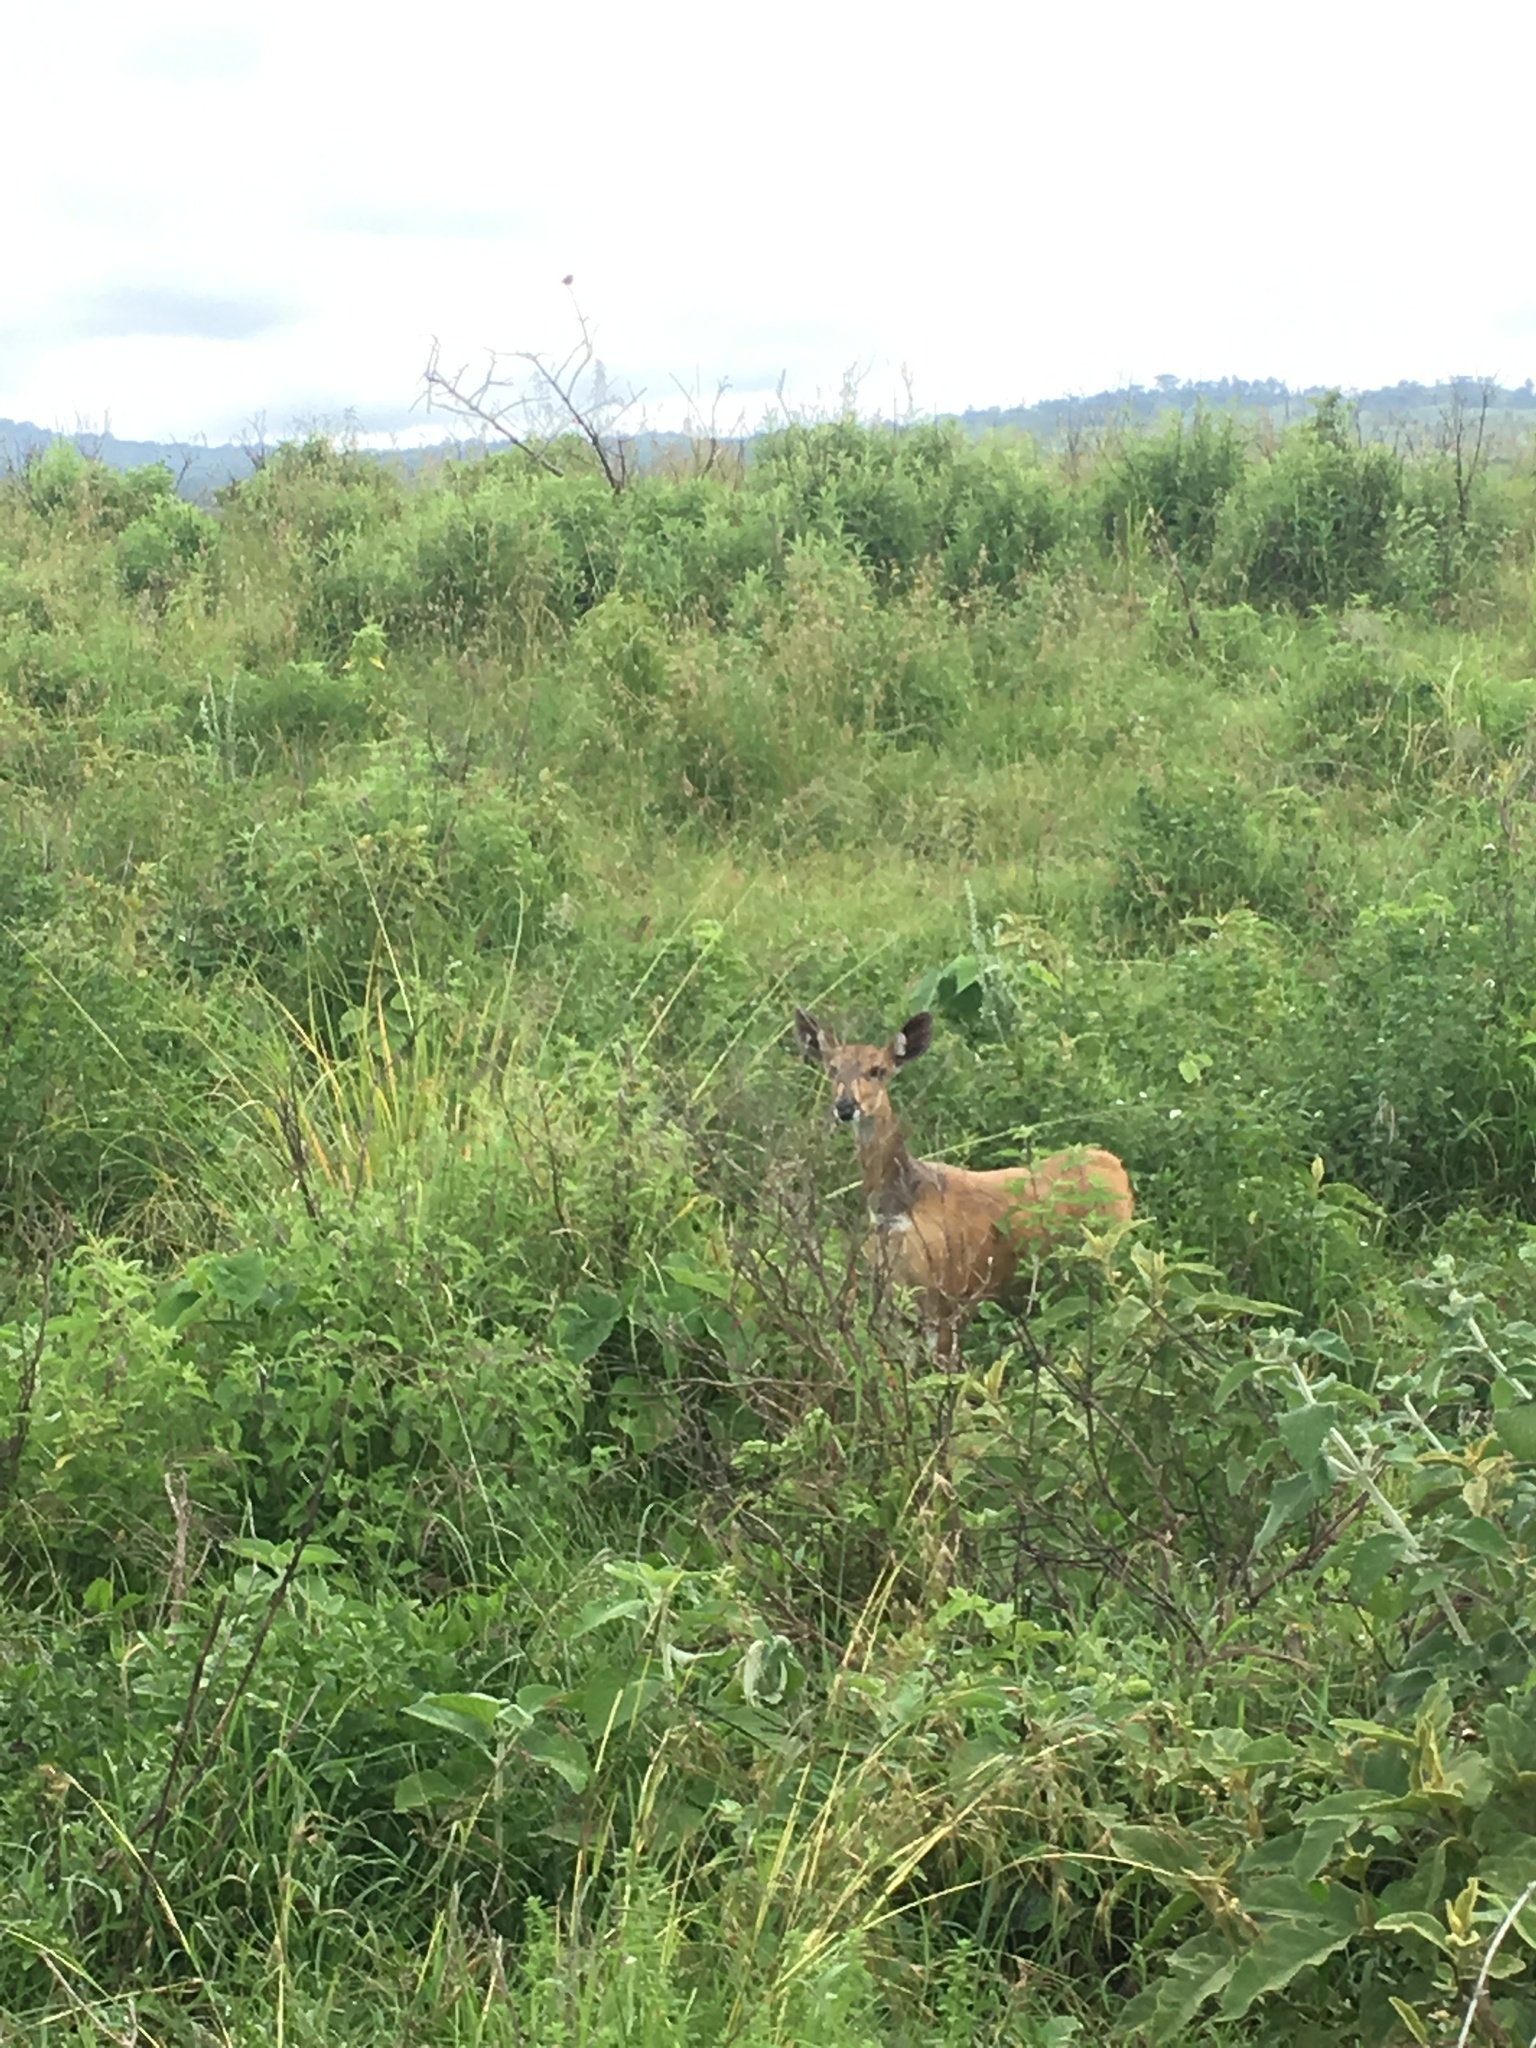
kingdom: Animalia
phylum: Chordata
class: Mammalia
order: Artiodactyla
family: Bovidae
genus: Tragelaphus
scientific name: Tragelaphus scriptus
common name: Bushbuck
